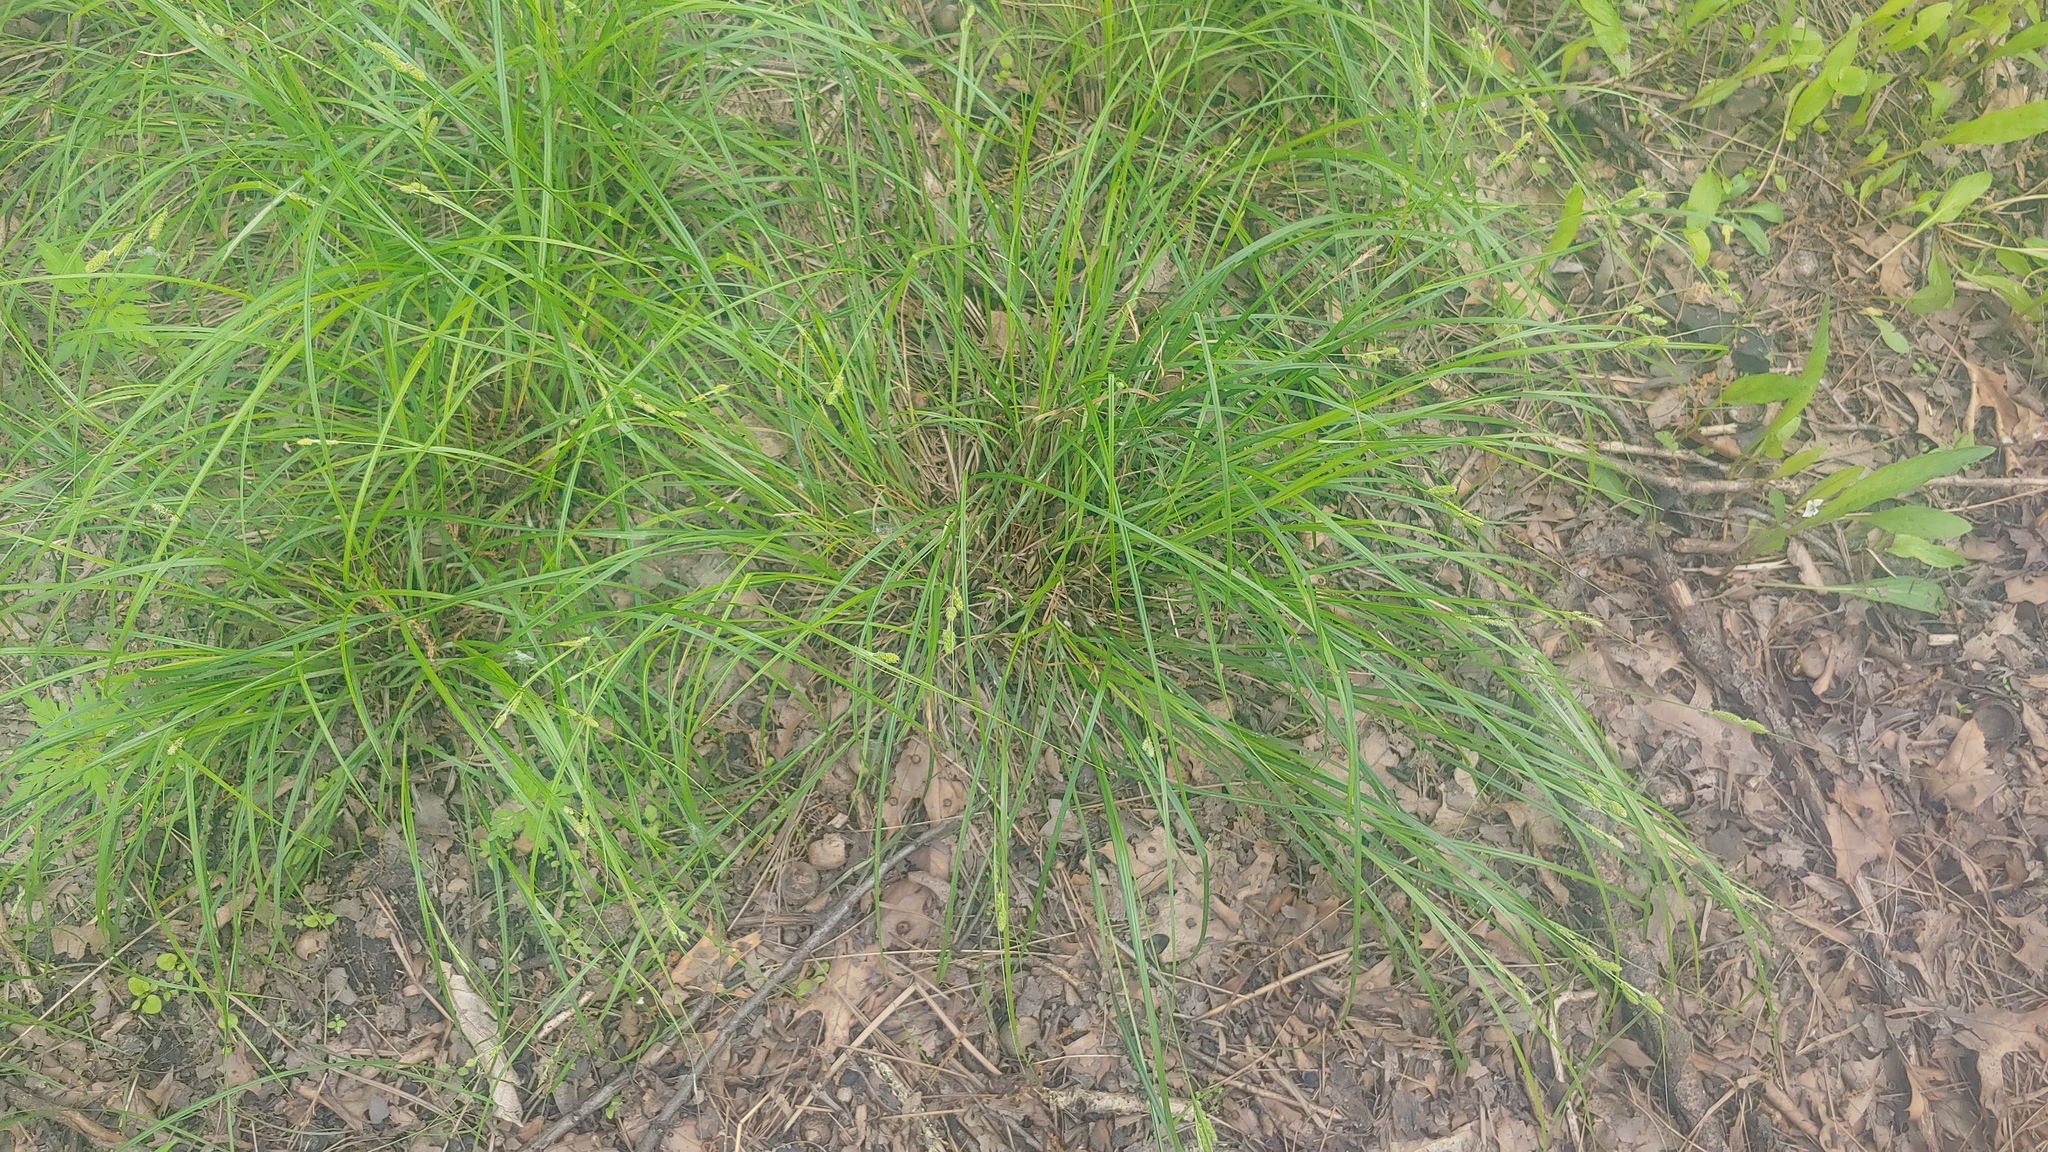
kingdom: Plantae
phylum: Tracheophyta
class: Liliopsida
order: Poales
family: Cyperaceae
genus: Carex
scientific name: Carex swanii
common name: Downy green sedge
